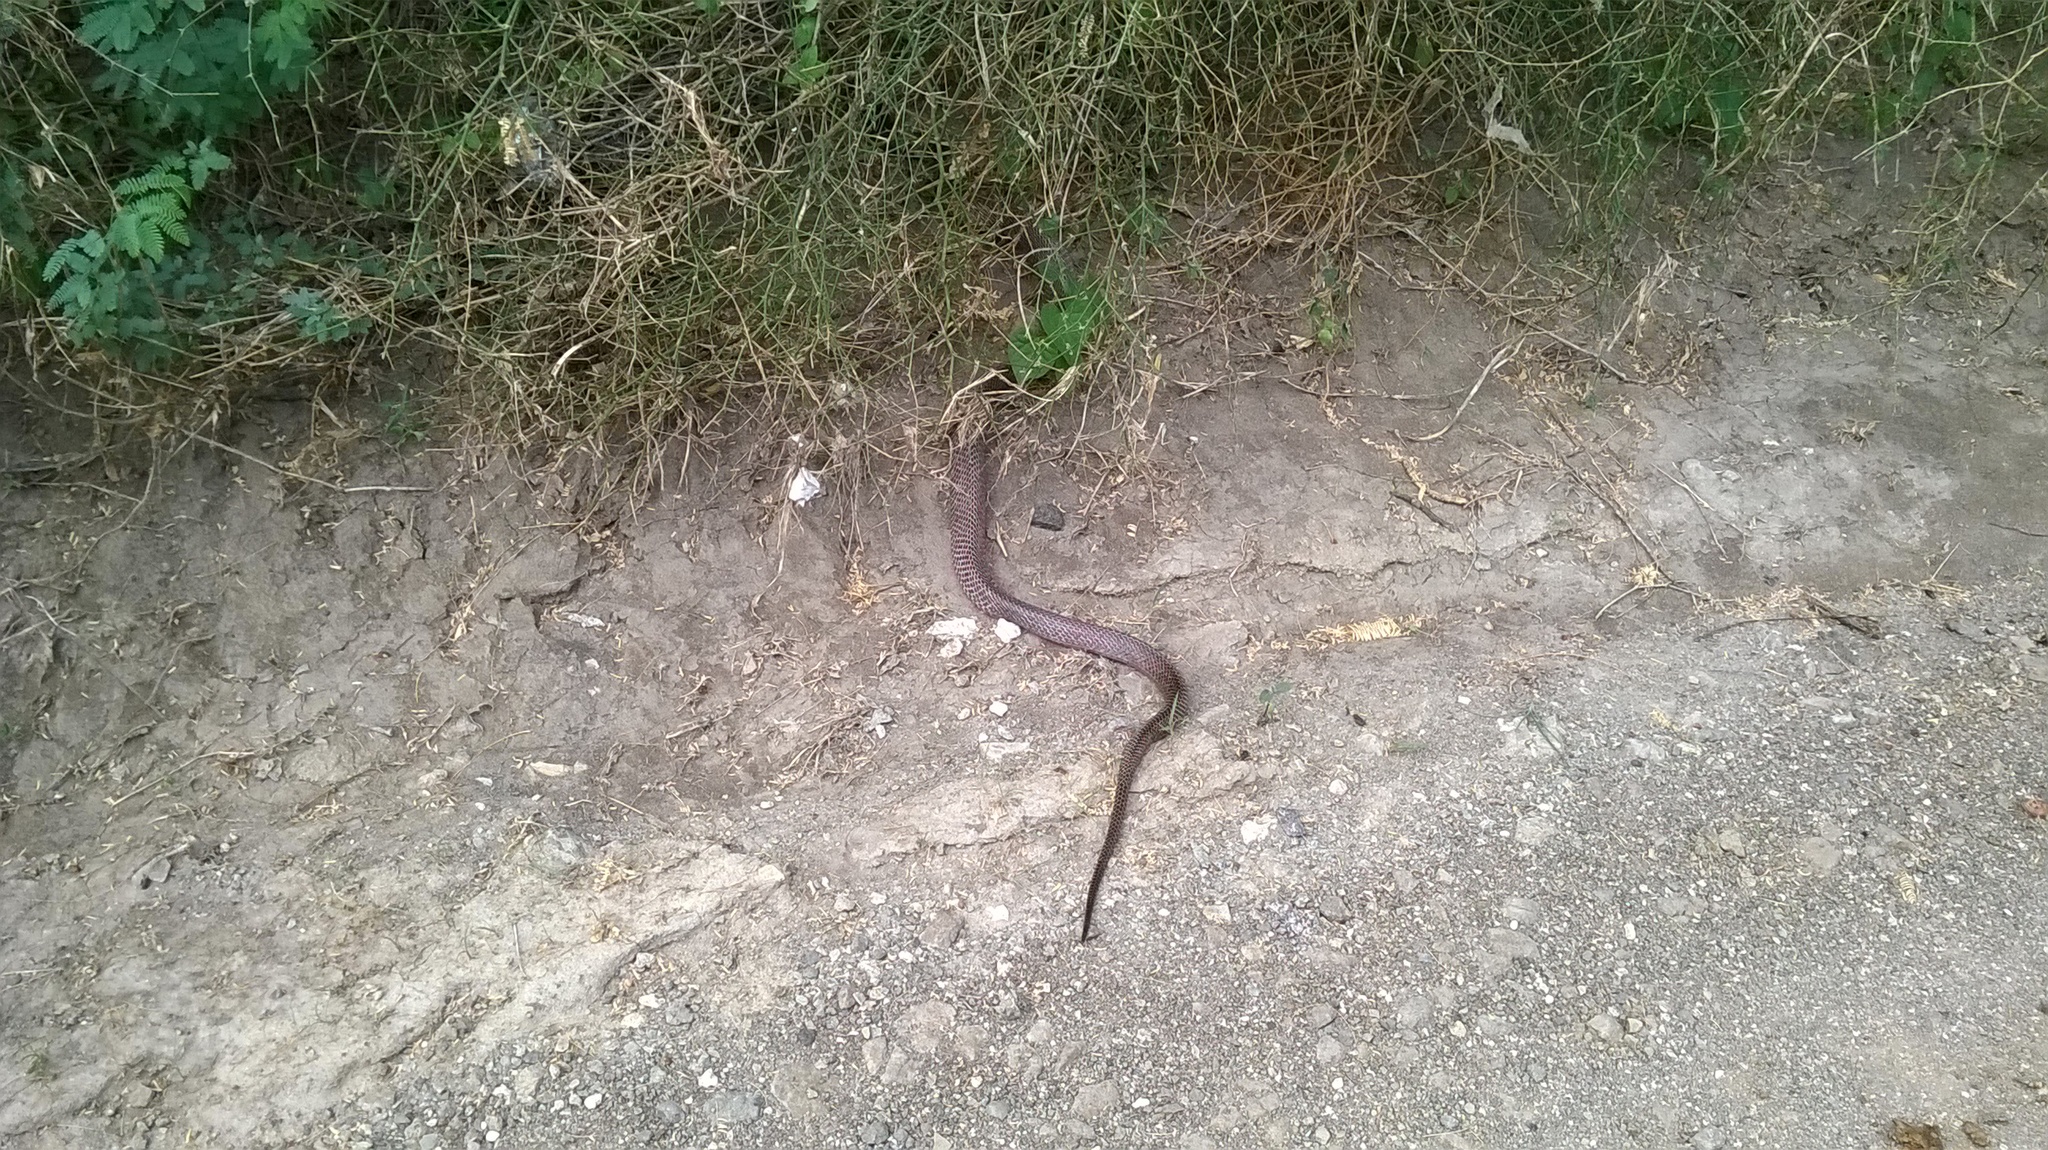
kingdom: Animalia
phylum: Chordata
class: Squamata
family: Elapidae
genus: Naja
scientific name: Naja naja
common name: Indian cobra
